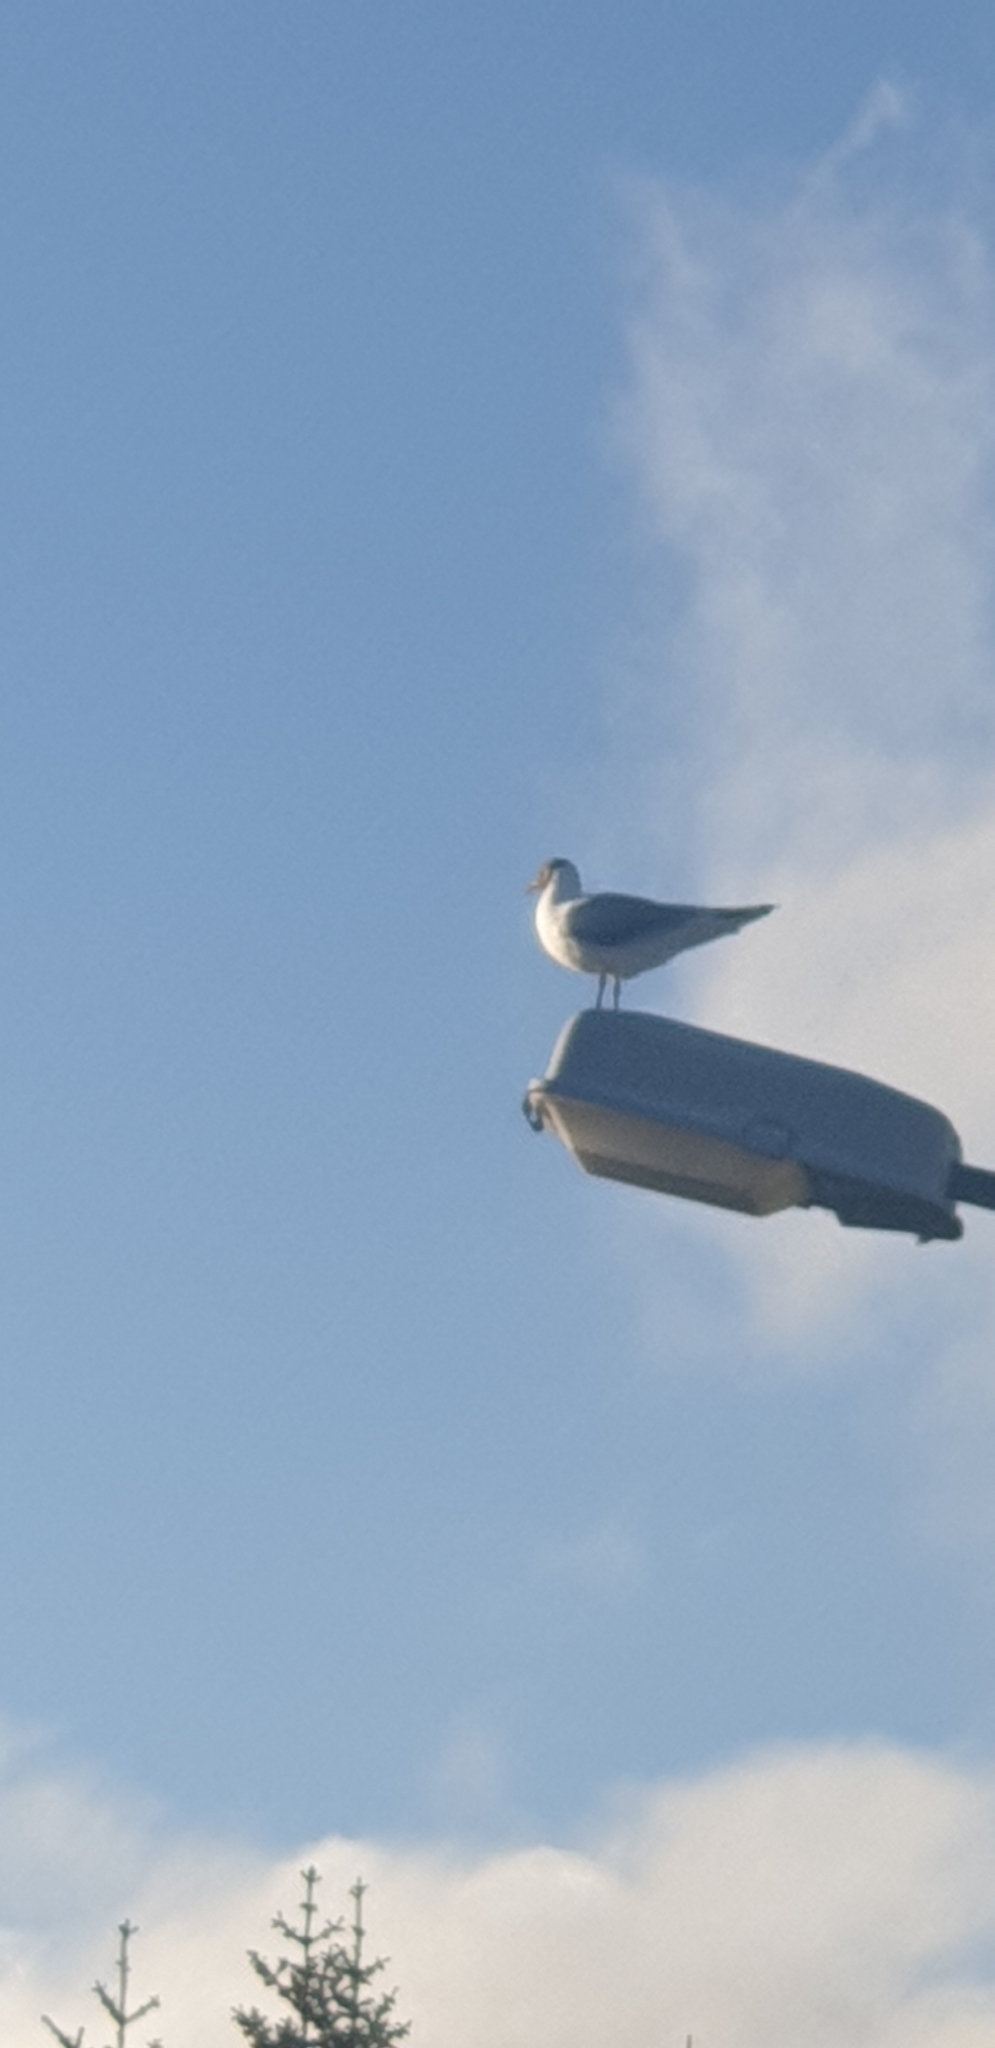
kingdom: Animalia
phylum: Chordata
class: Aves
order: Charadriiformes
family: Laridae
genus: Chroicocephalus
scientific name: Chroicocephalus ridibundus
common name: Black-headed gull
